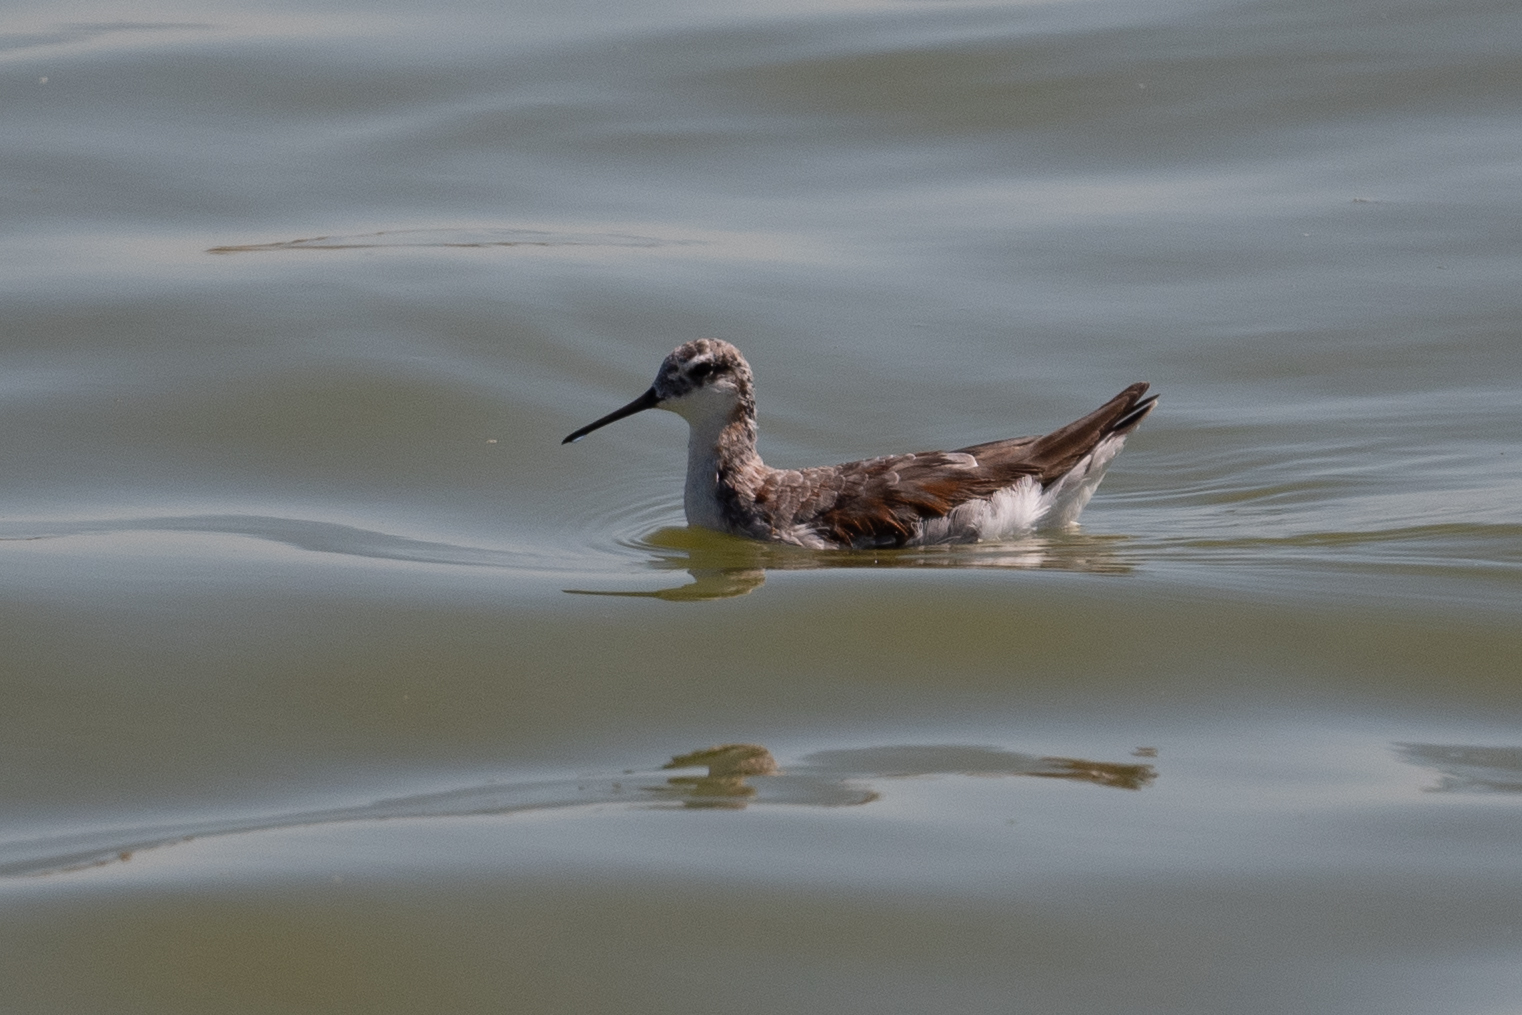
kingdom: Animalia
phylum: Chordata
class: Aves
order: Charadriiformes
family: Scolopacidae
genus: Phalaropus
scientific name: Phalaropus tricolor
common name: Wilson's phalarope
